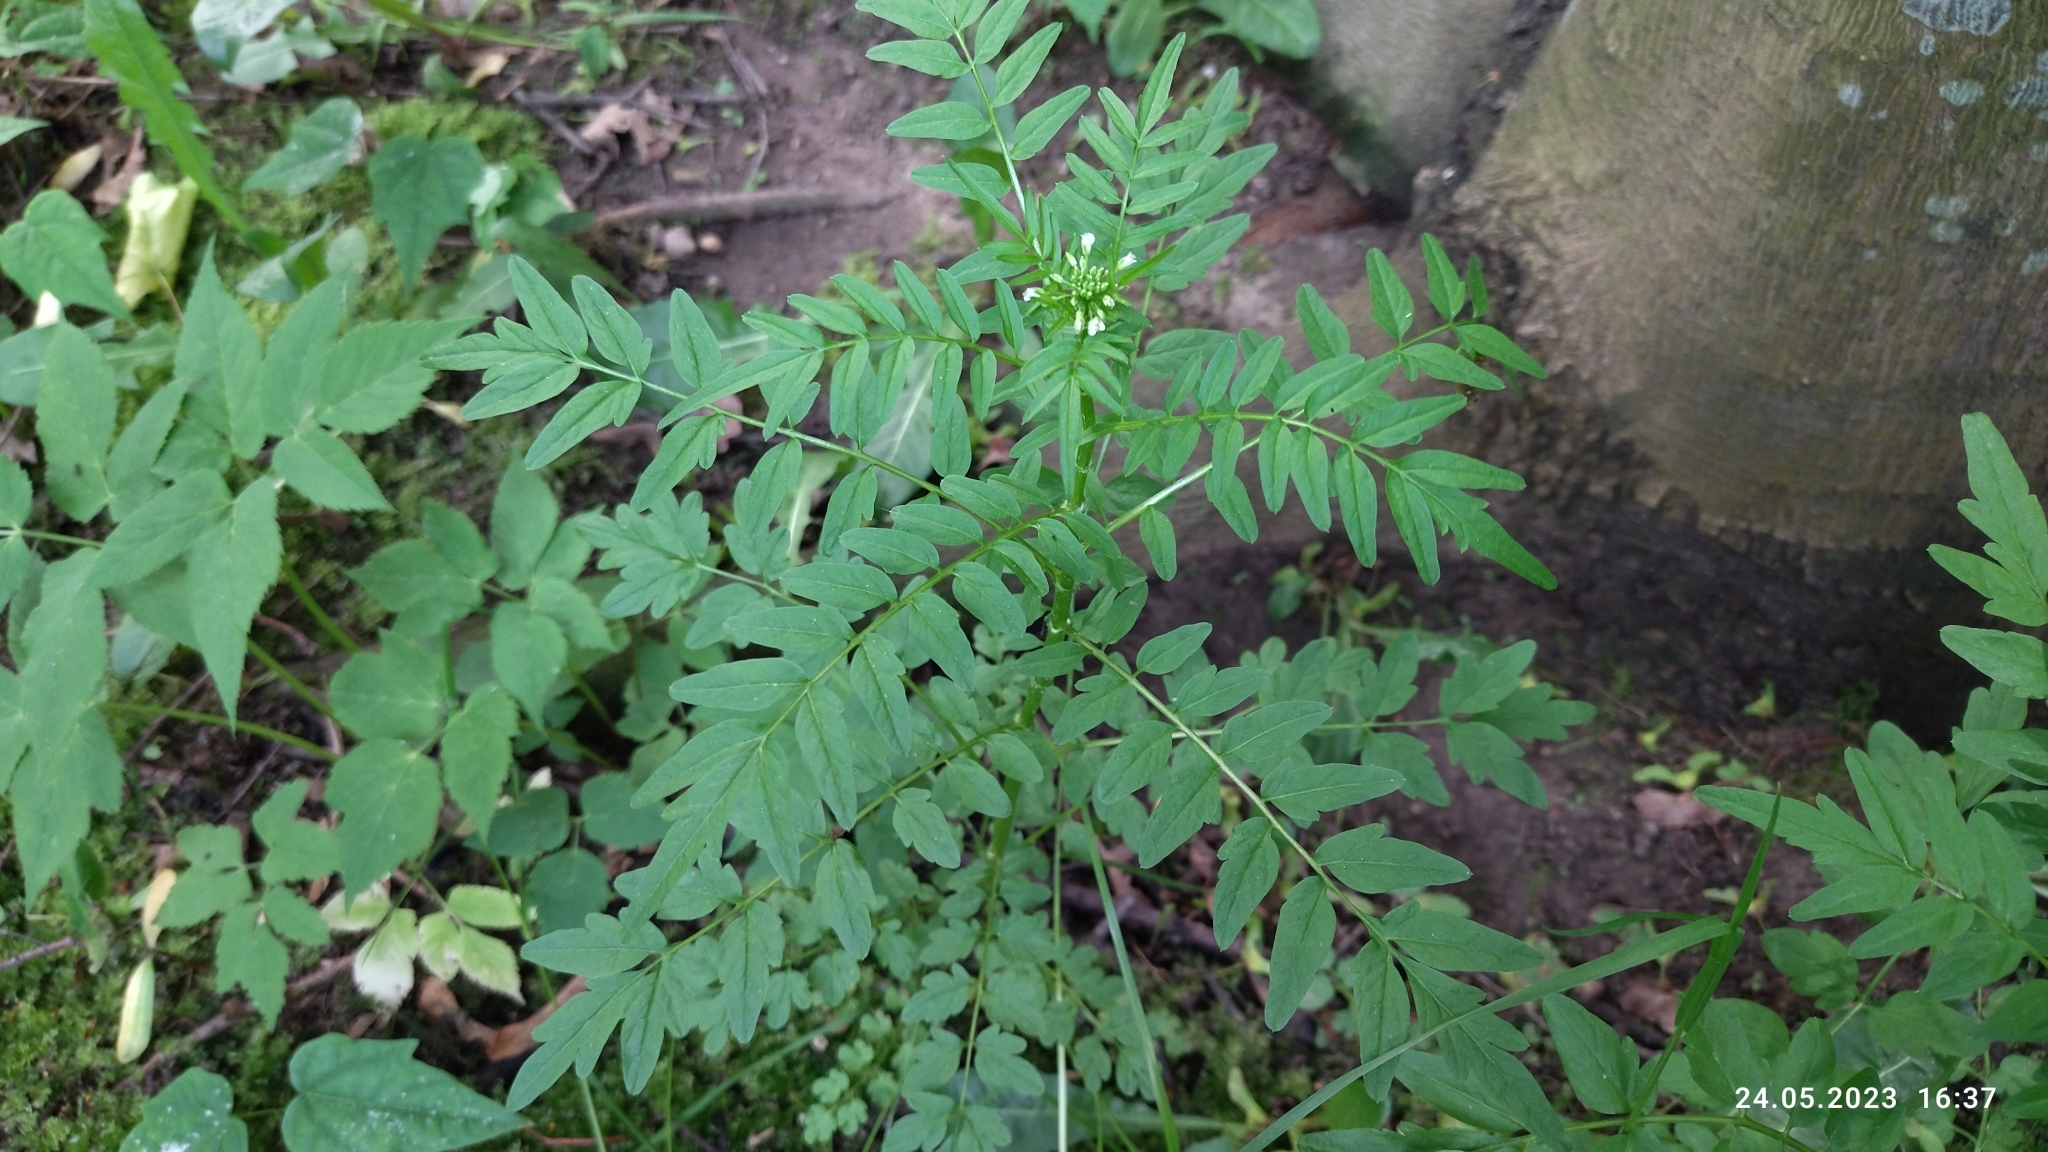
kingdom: Plantae
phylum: Tracheophyta
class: Magnoliopsida
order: Brassicales
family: Brassicaceae
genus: Cardamine
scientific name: Cardamine impatiens
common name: Narrow-leaved bitter-cress
